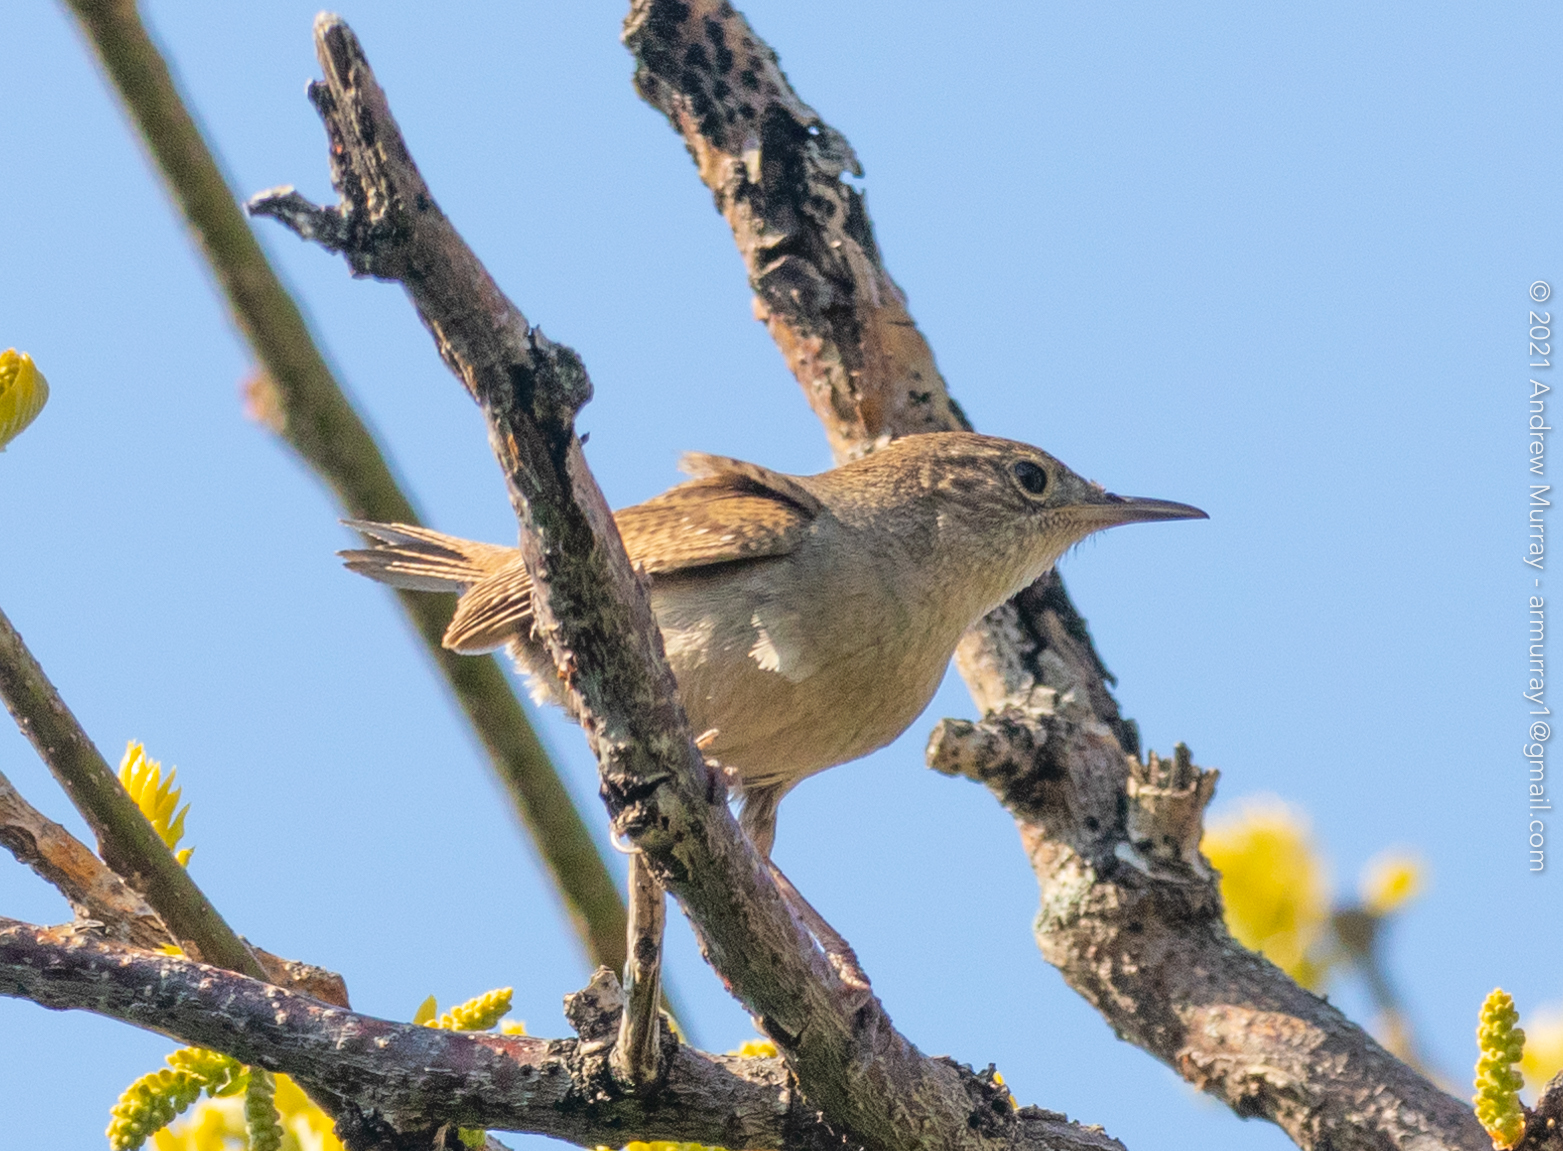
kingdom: Animalia
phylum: Chordata
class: Aves
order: Passeriformes
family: Troglodytidae
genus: Troglodytes
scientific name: Troglodytes aedon
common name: House wren
